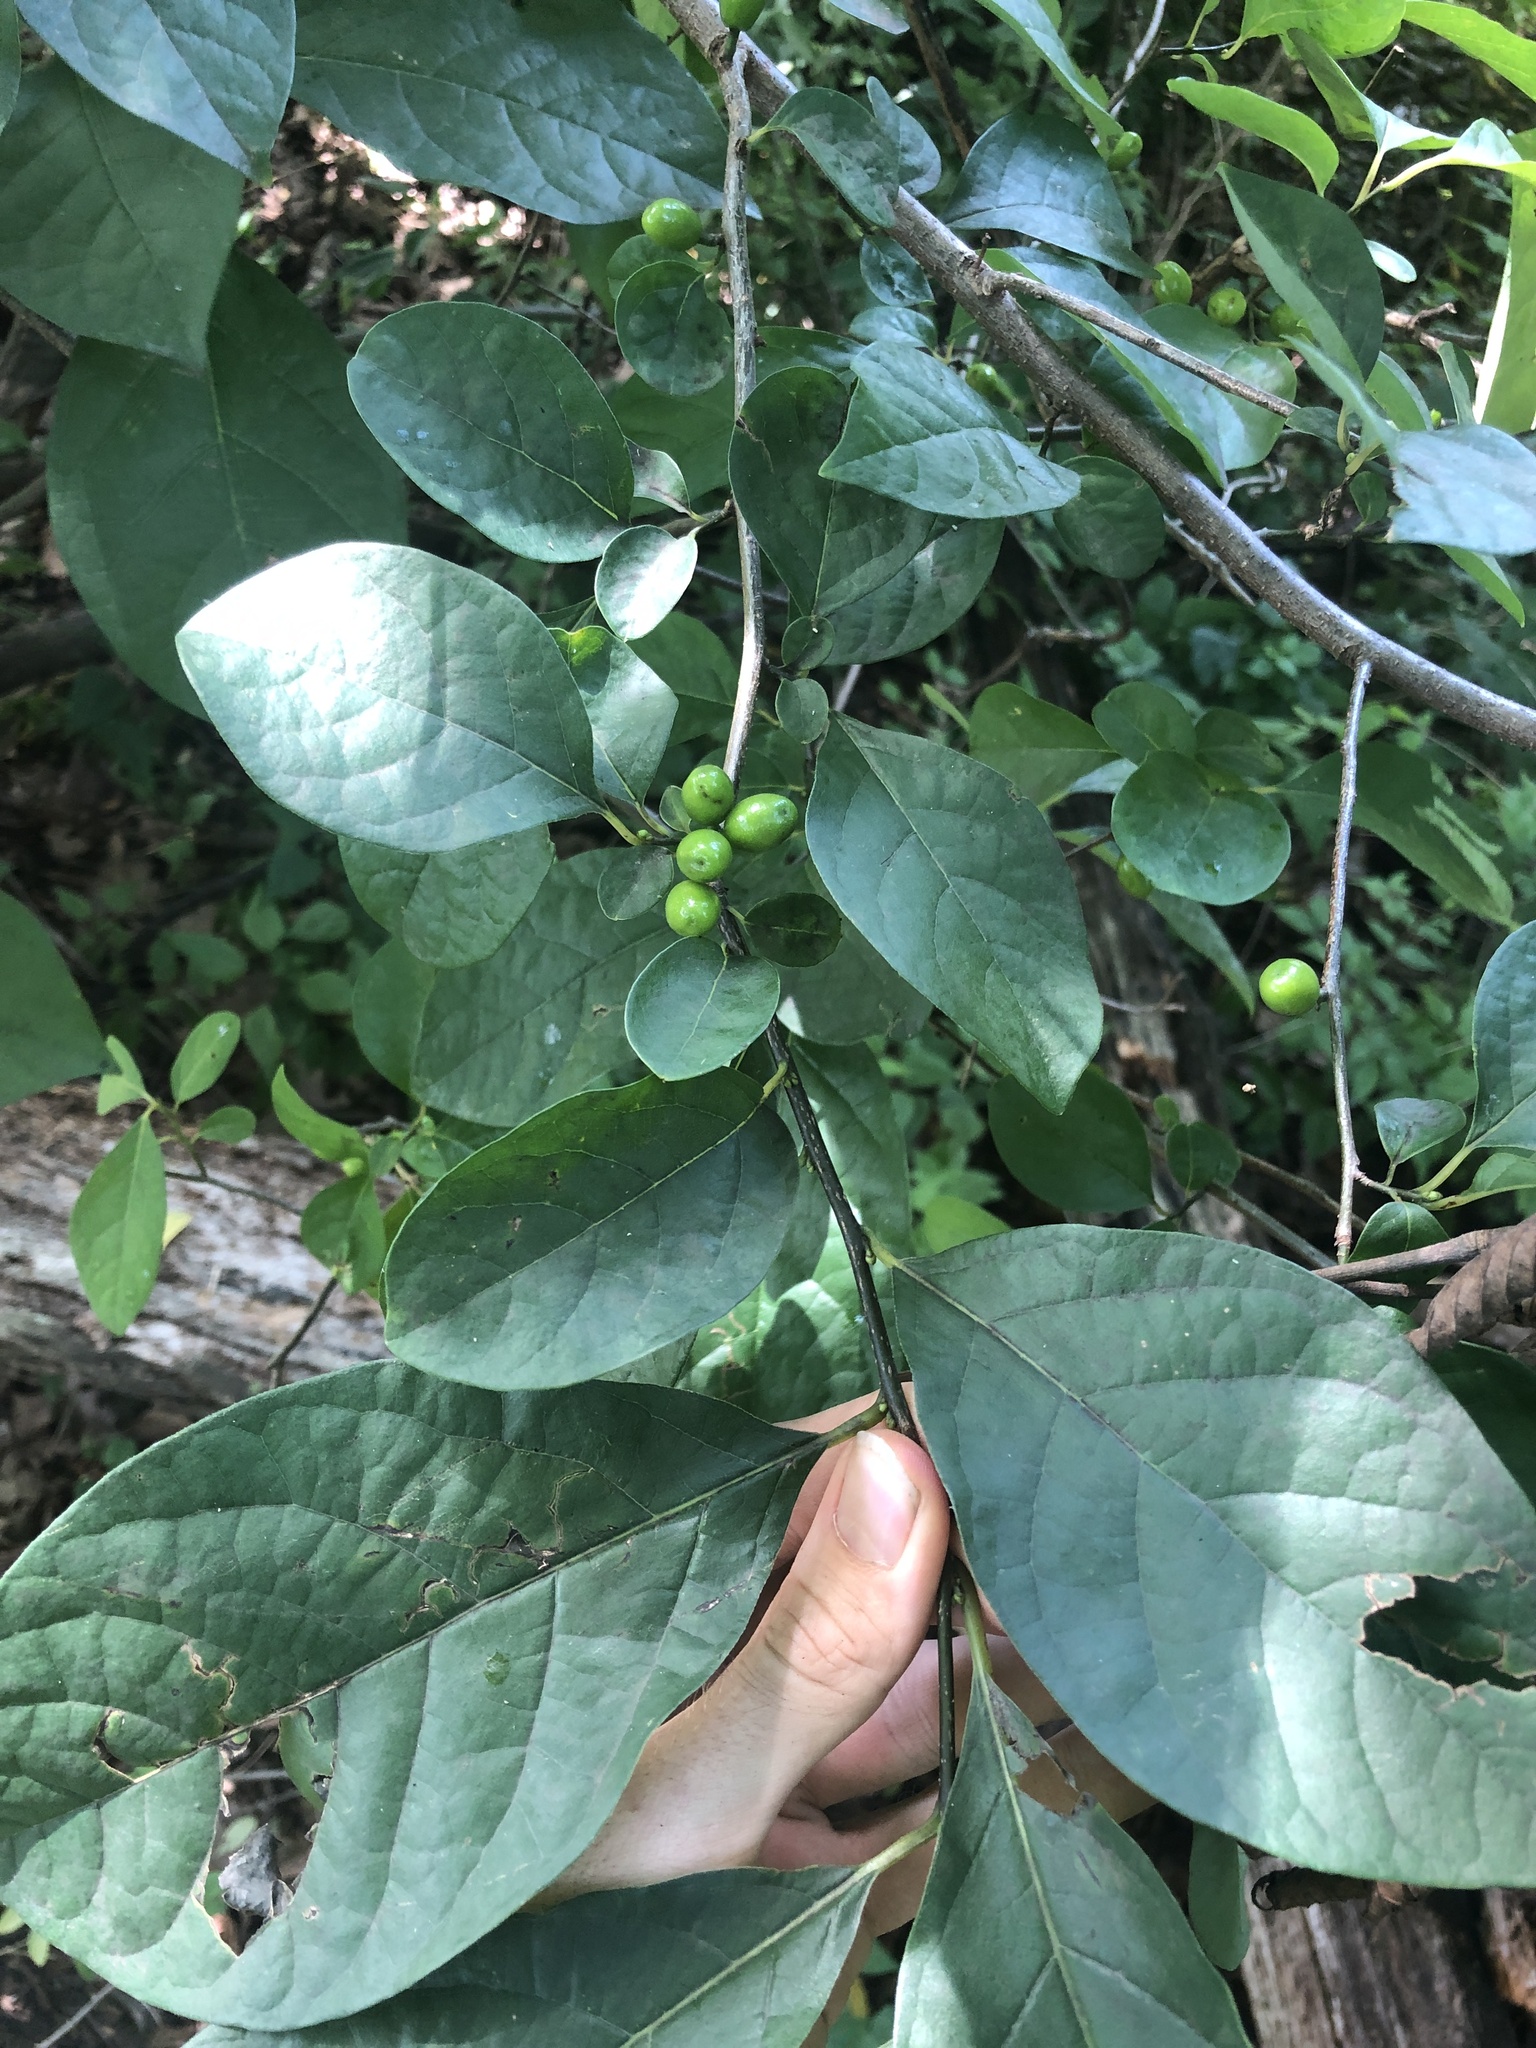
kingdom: Plantae
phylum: Tracheophyta
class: Magnoliopsida
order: Laurales
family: Lauraceae
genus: Lindera
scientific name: Lindera benzoin
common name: Spicebush
